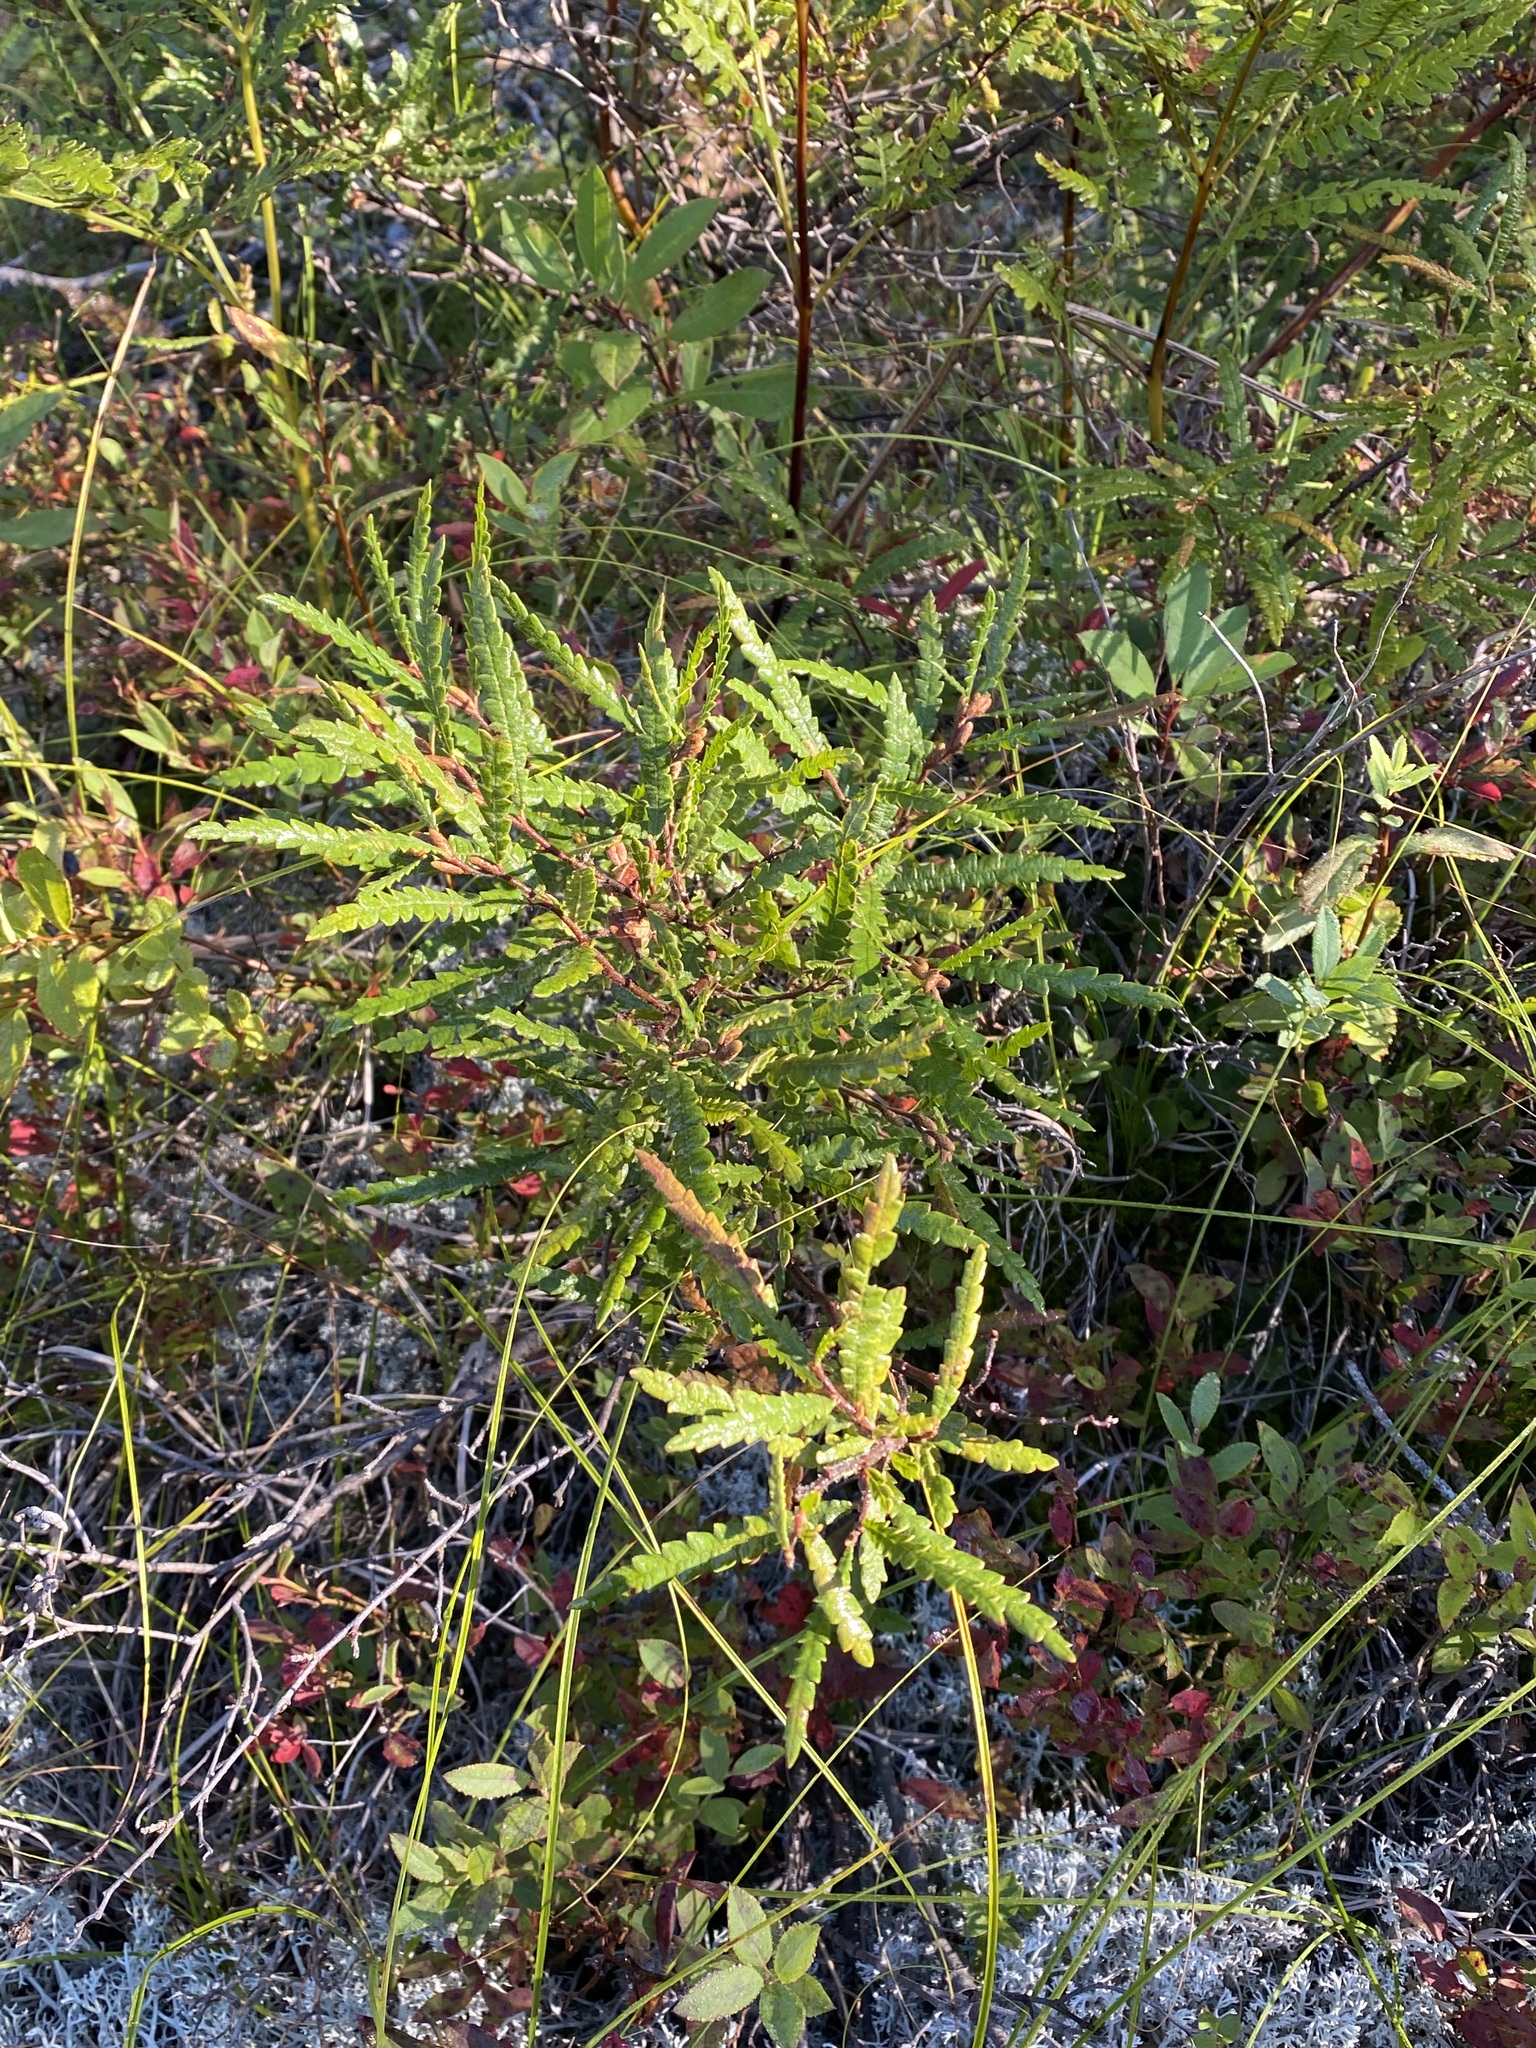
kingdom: Plantae
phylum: Tracheophyta
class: Magnoliopsida
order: Fagales
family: Myricaceae
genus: Comptonia
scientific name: Comptonia peregrina
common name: Sweet-fern
